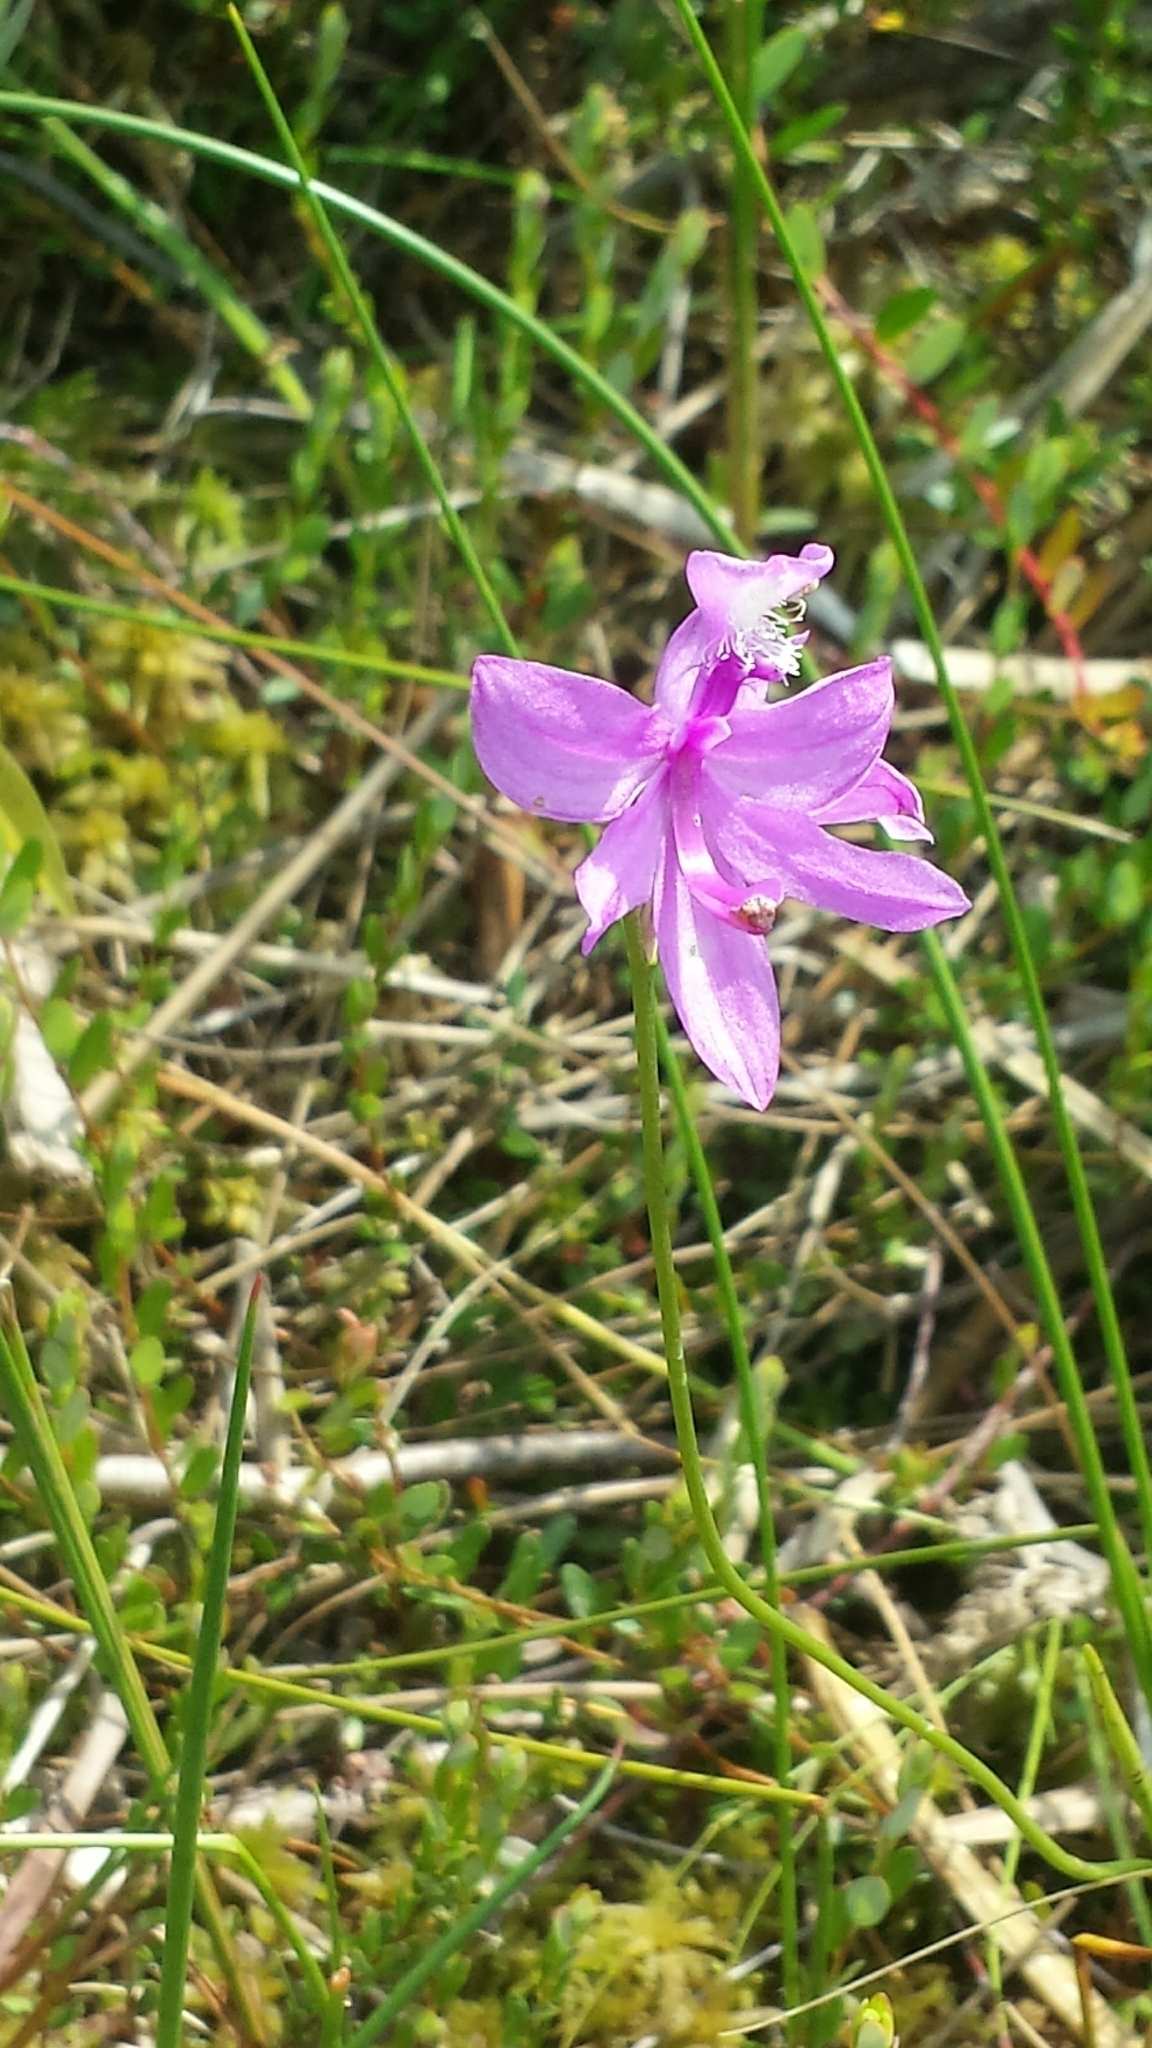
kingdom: Plantae
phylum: Tracheophyta
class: Liliopsida
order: Asparagales
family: Orchidaceae
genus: Calopogon
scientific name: Calopogon tuberosus
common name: Grass-pink
